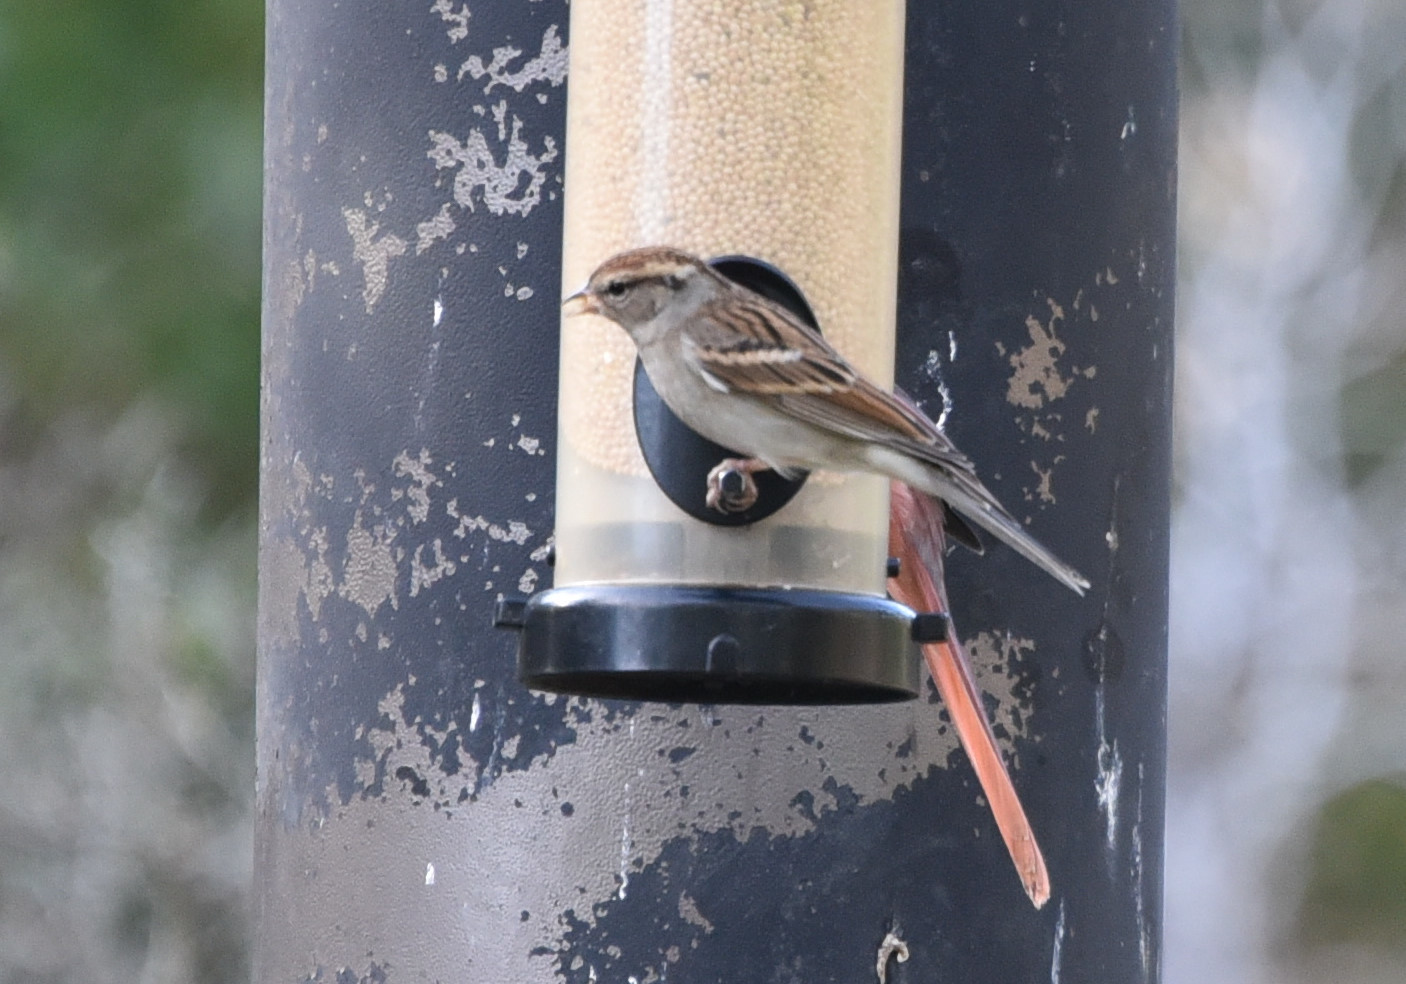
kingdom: Animalia
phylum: Chordata
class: Aves
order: Passeriformes
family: Passerellidae
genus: Spizella
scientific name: Spizella passerina
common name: Chipping sparrow
